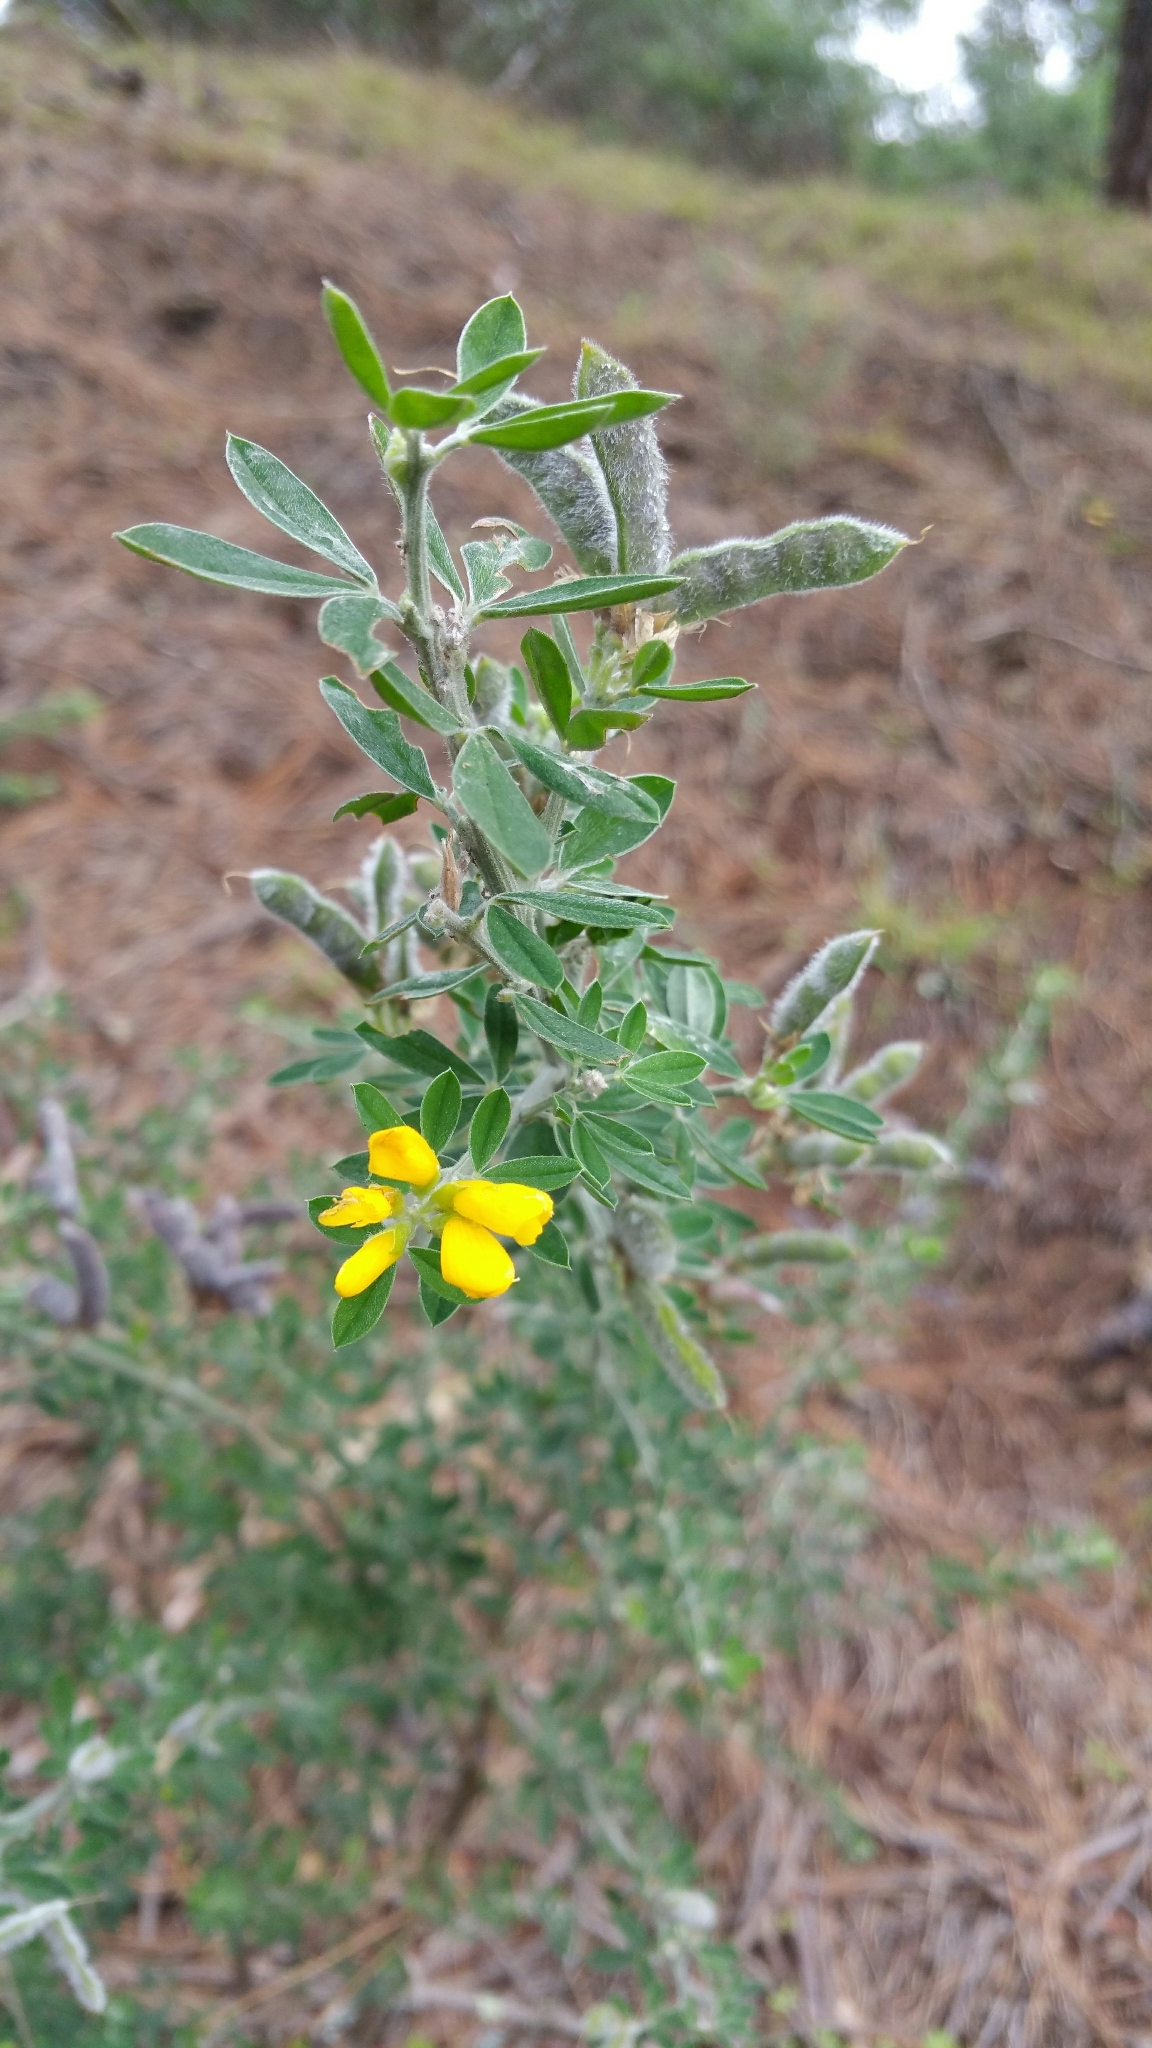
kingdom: Plantae
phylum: Tracheophyta
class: Magnoliopsida
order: Fabales
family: Fabaceae
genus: Genista
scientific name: Genista monspessulana
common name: Montpellier broom
